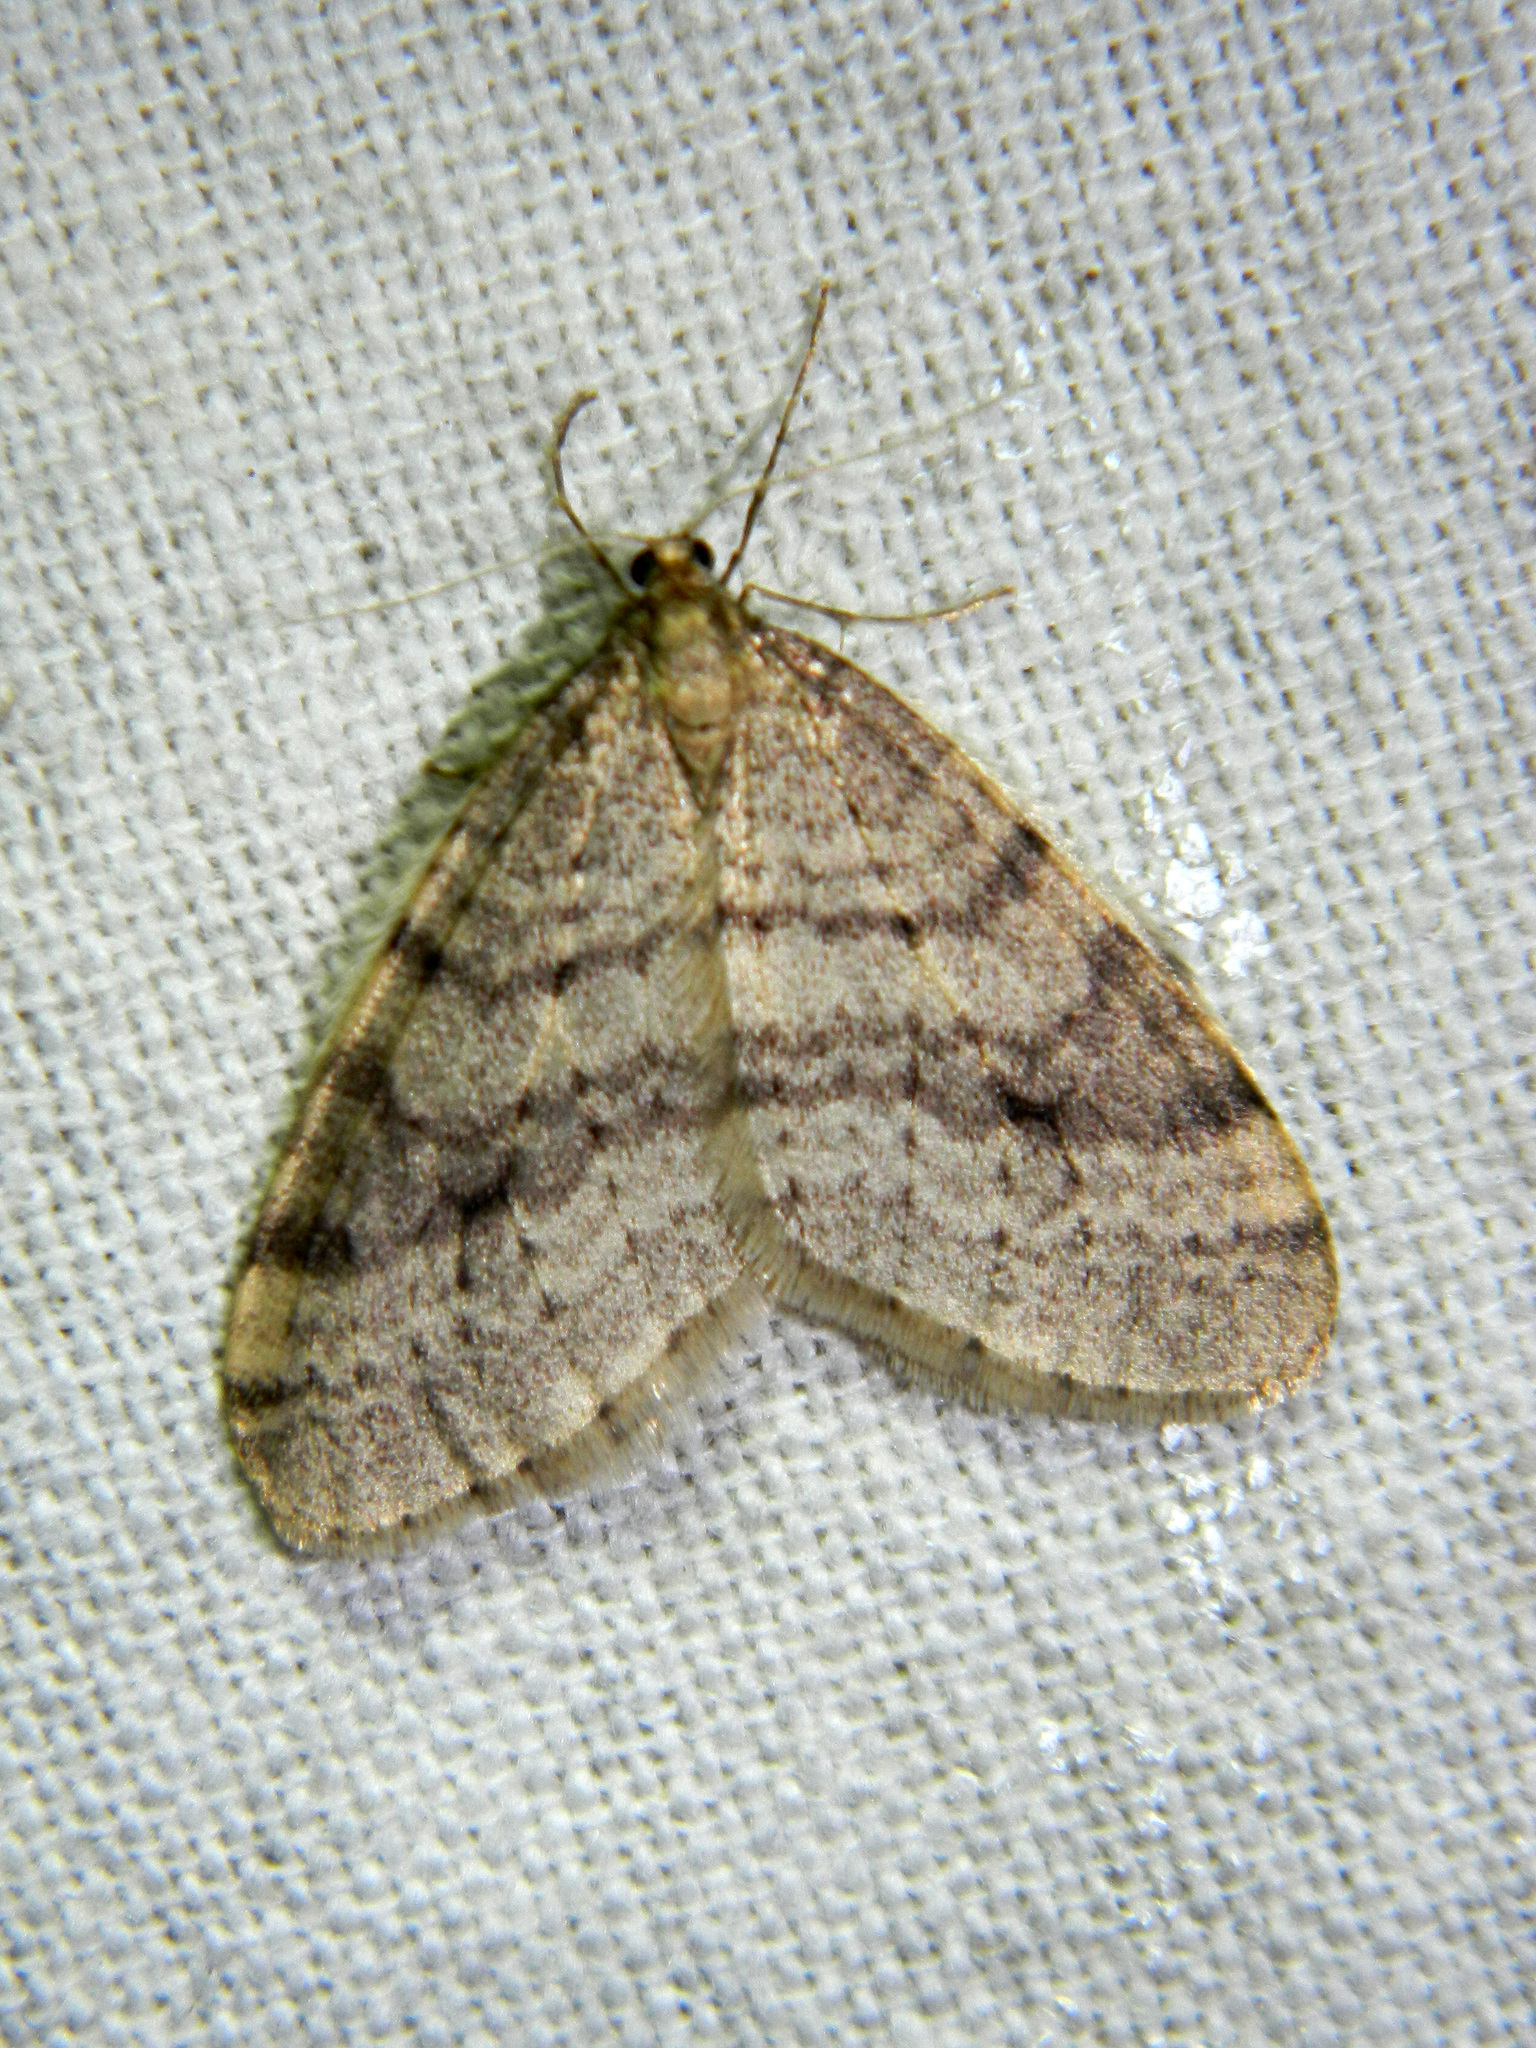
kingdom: Animalia
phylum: Arthropoda
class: Insecta
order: Lepidoptera
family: Geometridae
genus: Operophtera
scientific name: Operophtera bruceata
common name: Bruce spanworm
